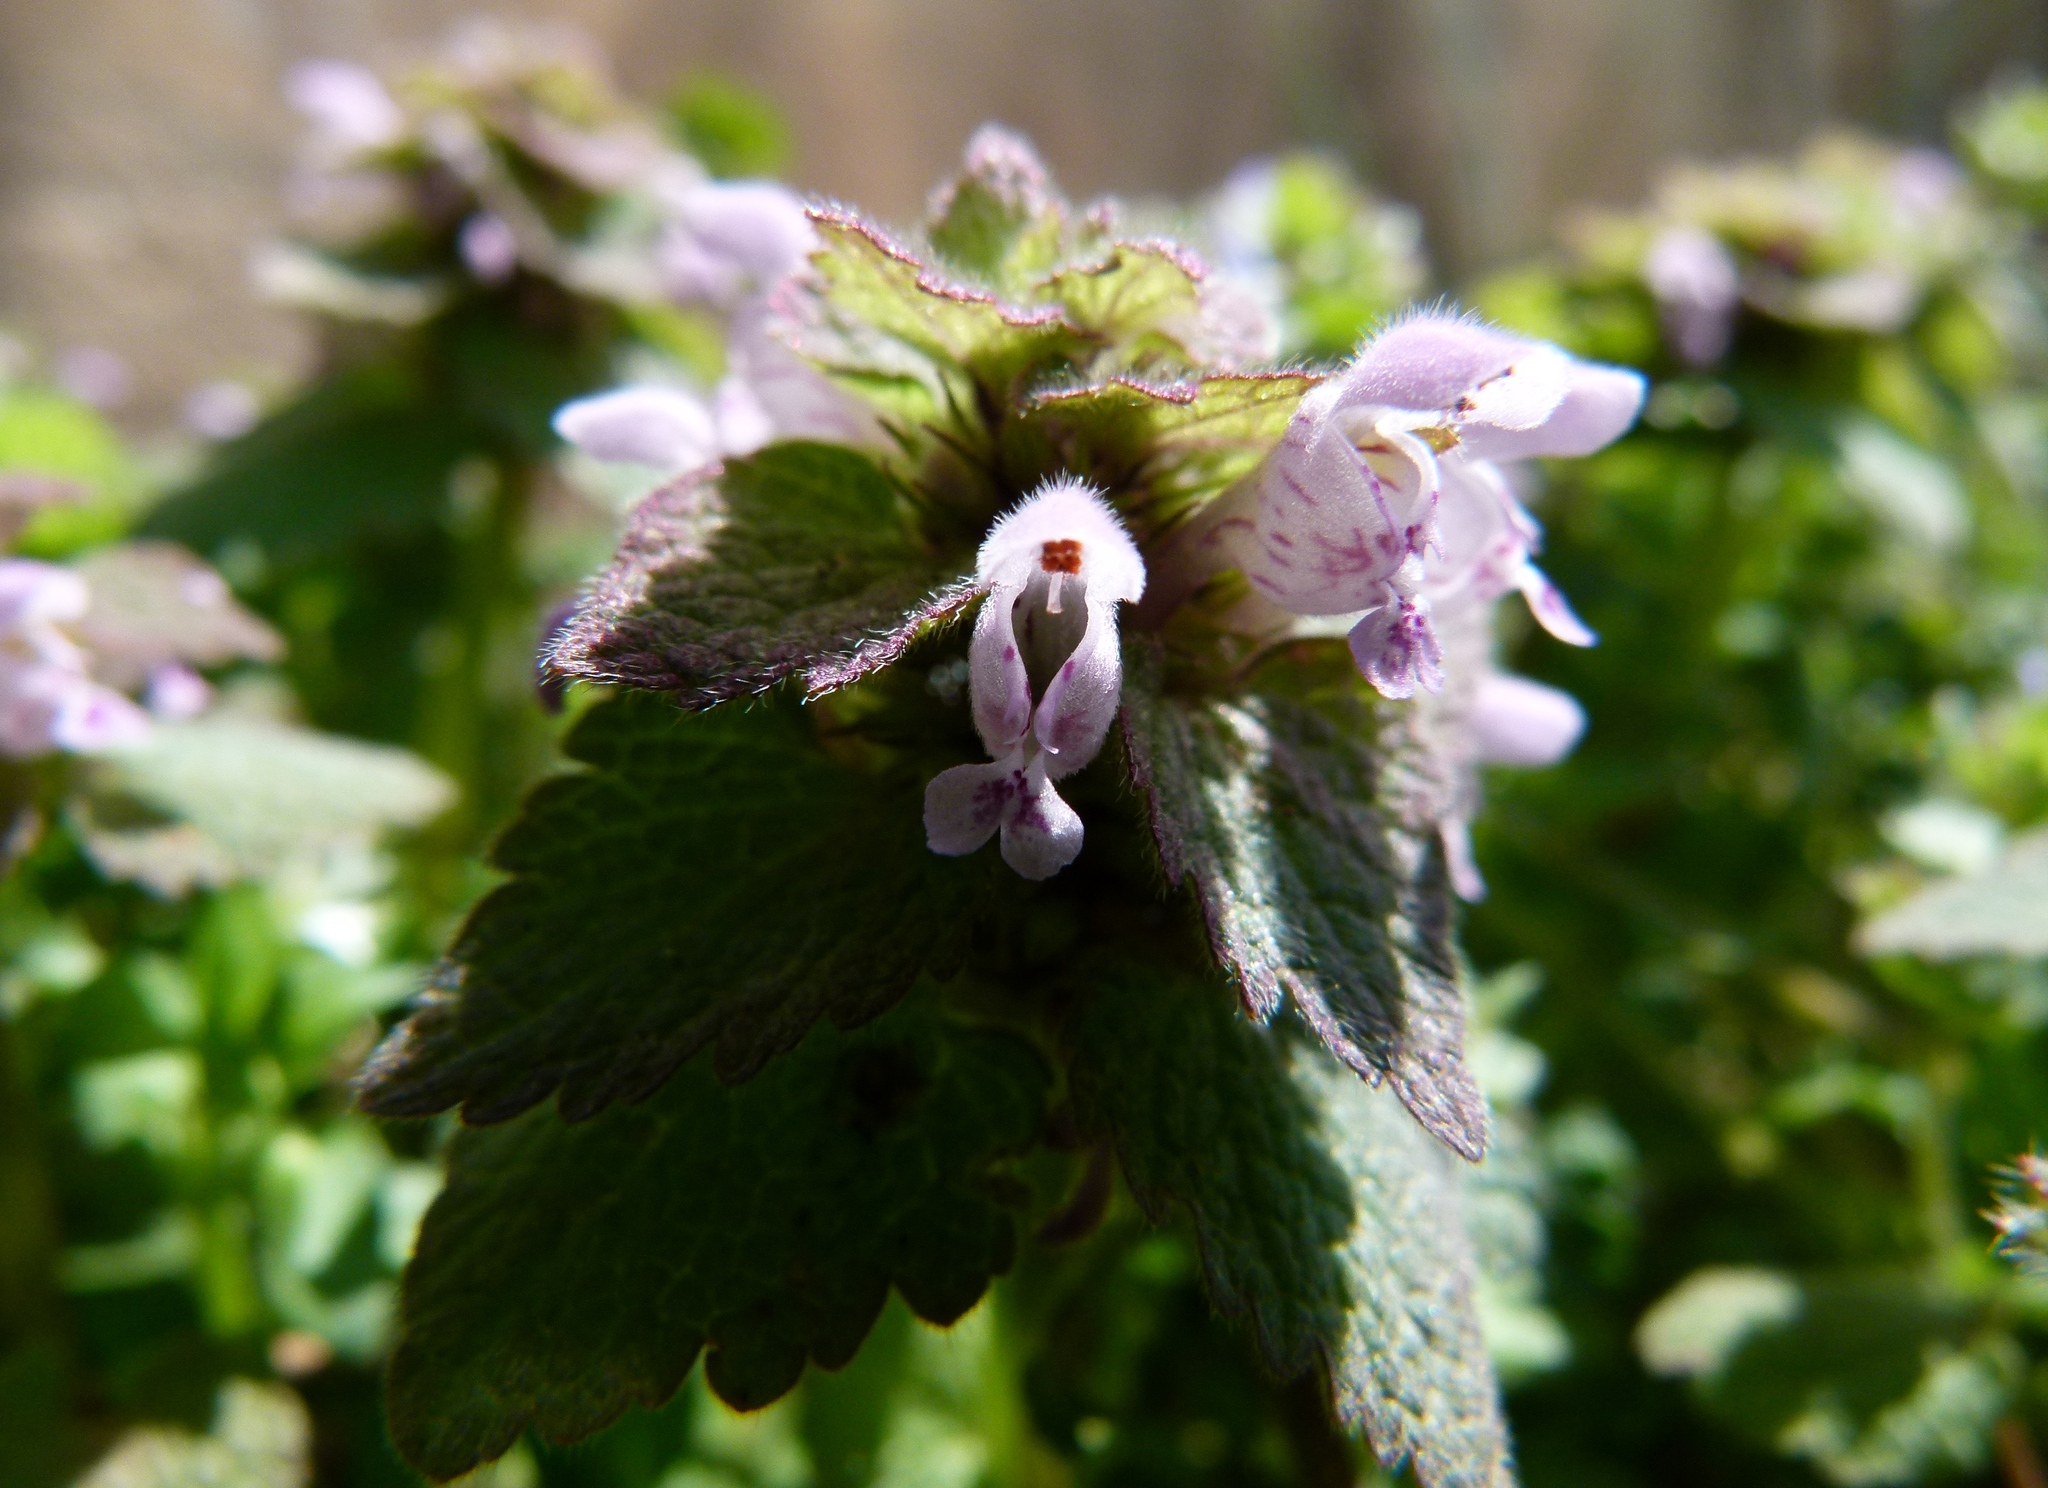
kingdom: Plantae
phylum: Tracheophyta
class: Magnoliopsida
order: Lamiales
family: Lamiaceae
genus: Lamium
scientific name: Lamium purpureum
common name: Red dead-nettle
